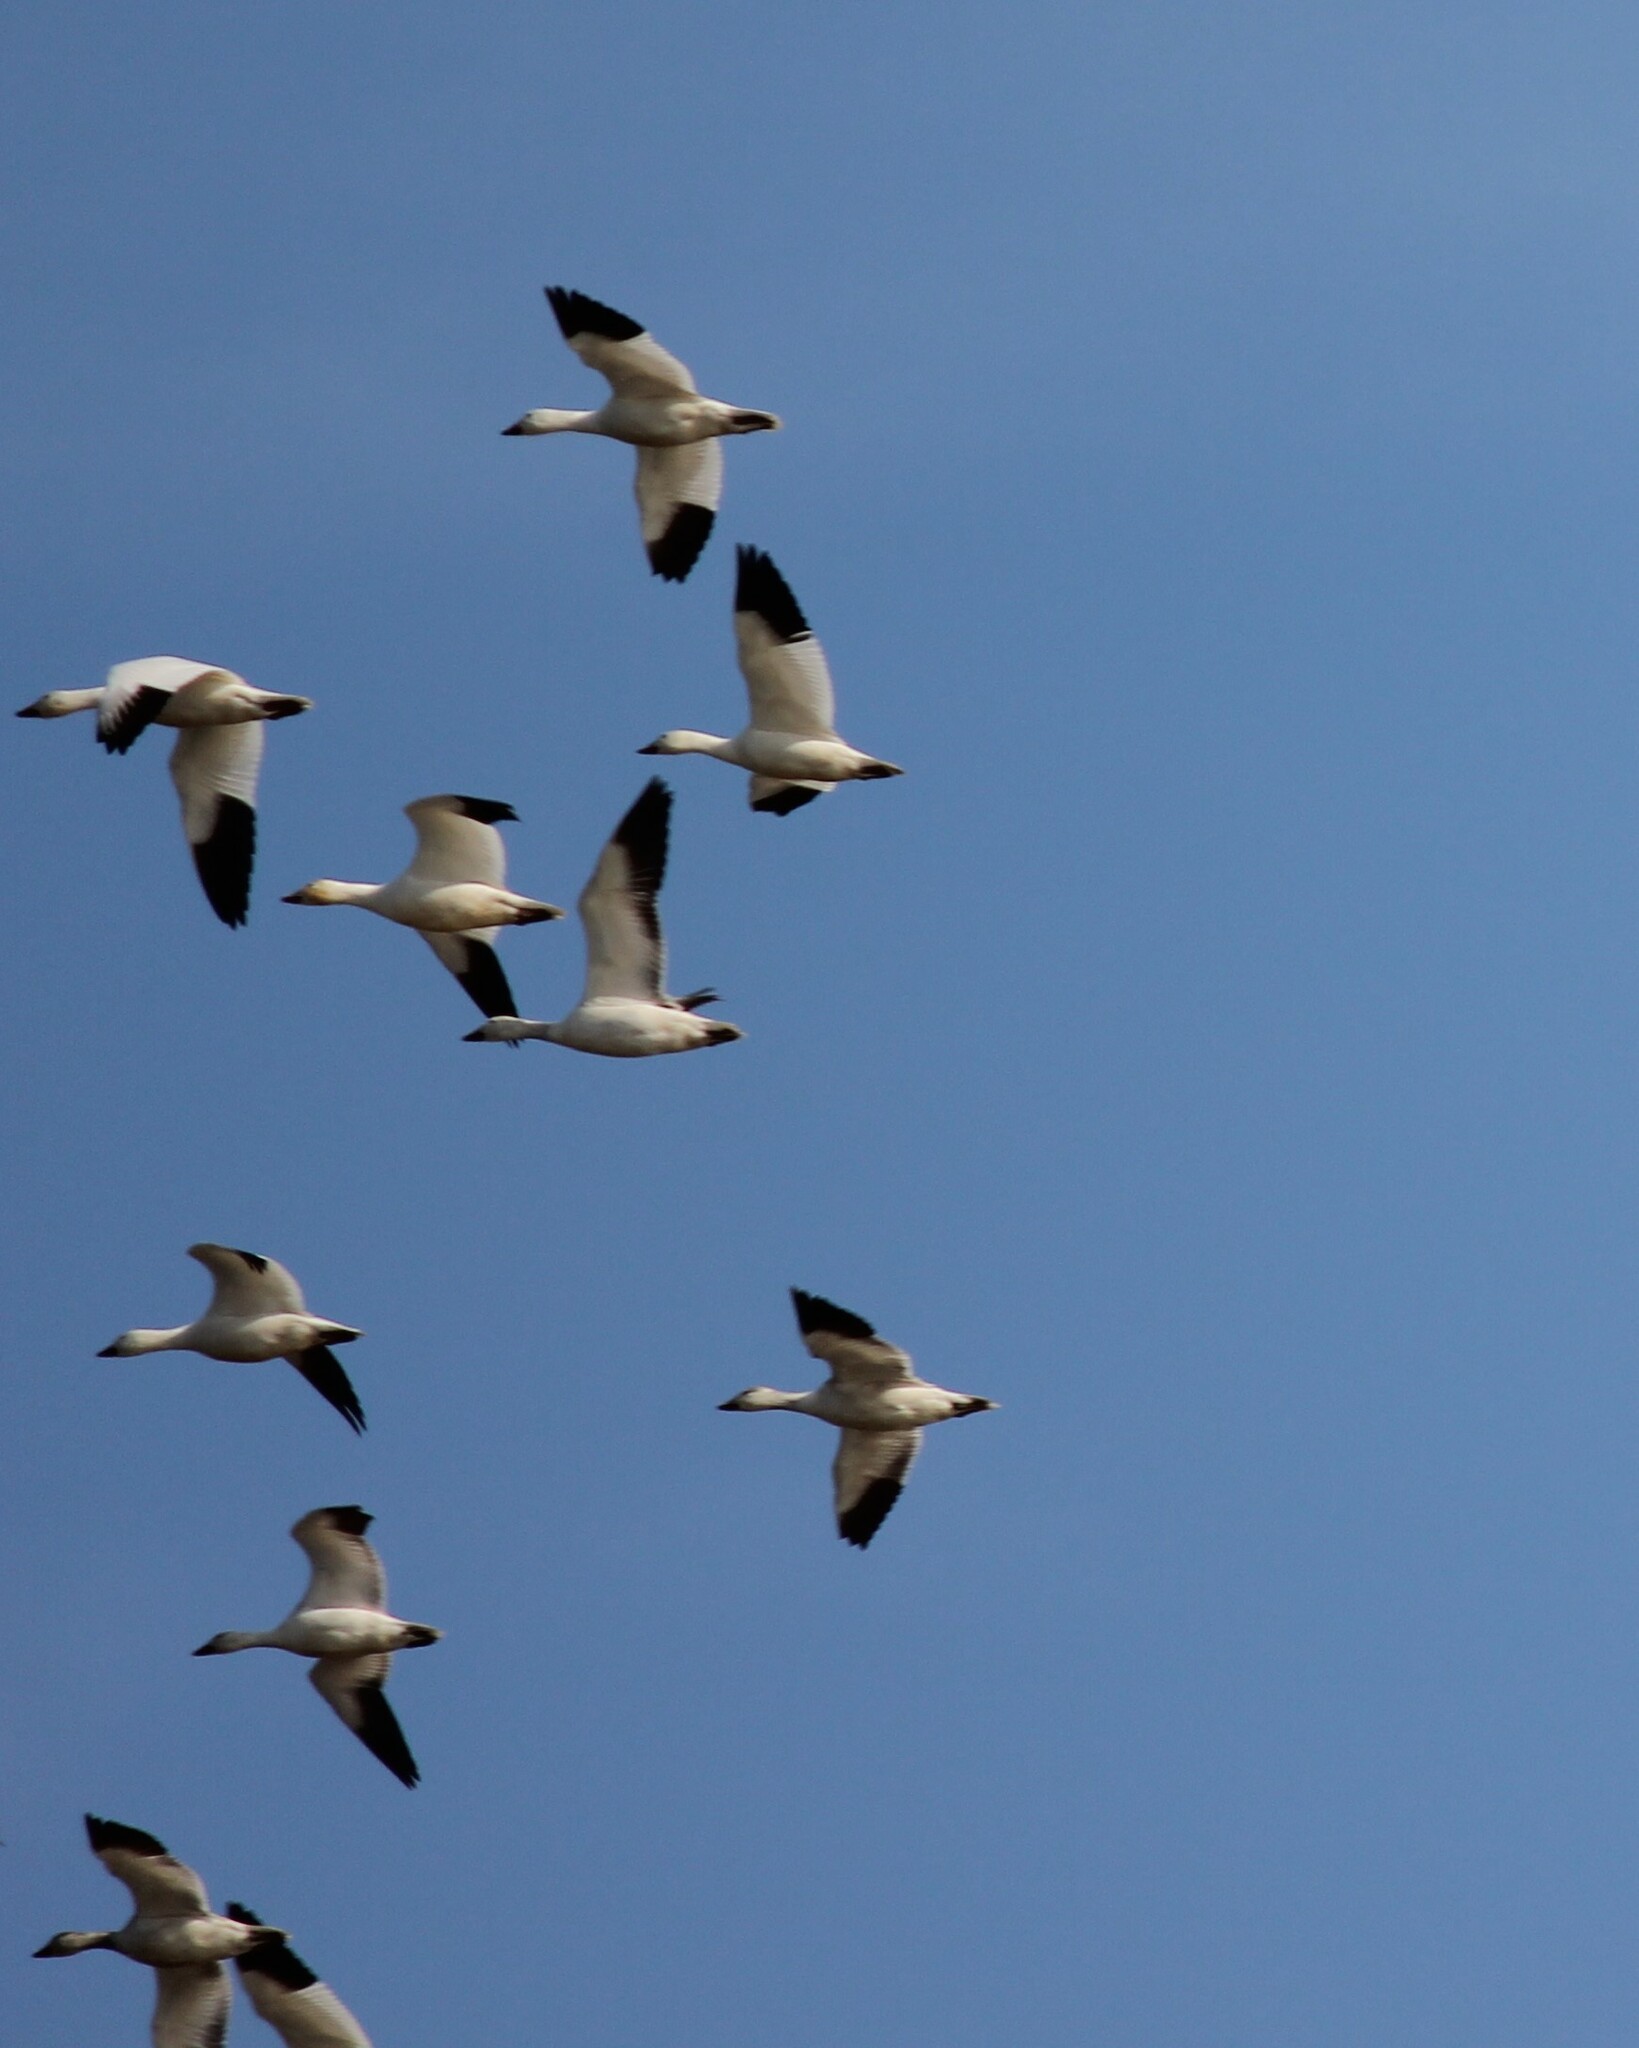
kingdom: Animalia
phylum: Chordata
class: Aves
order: Anseriformes
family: Anatidae
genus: Anser
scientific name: Anser caerulescens
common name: Snow goose
